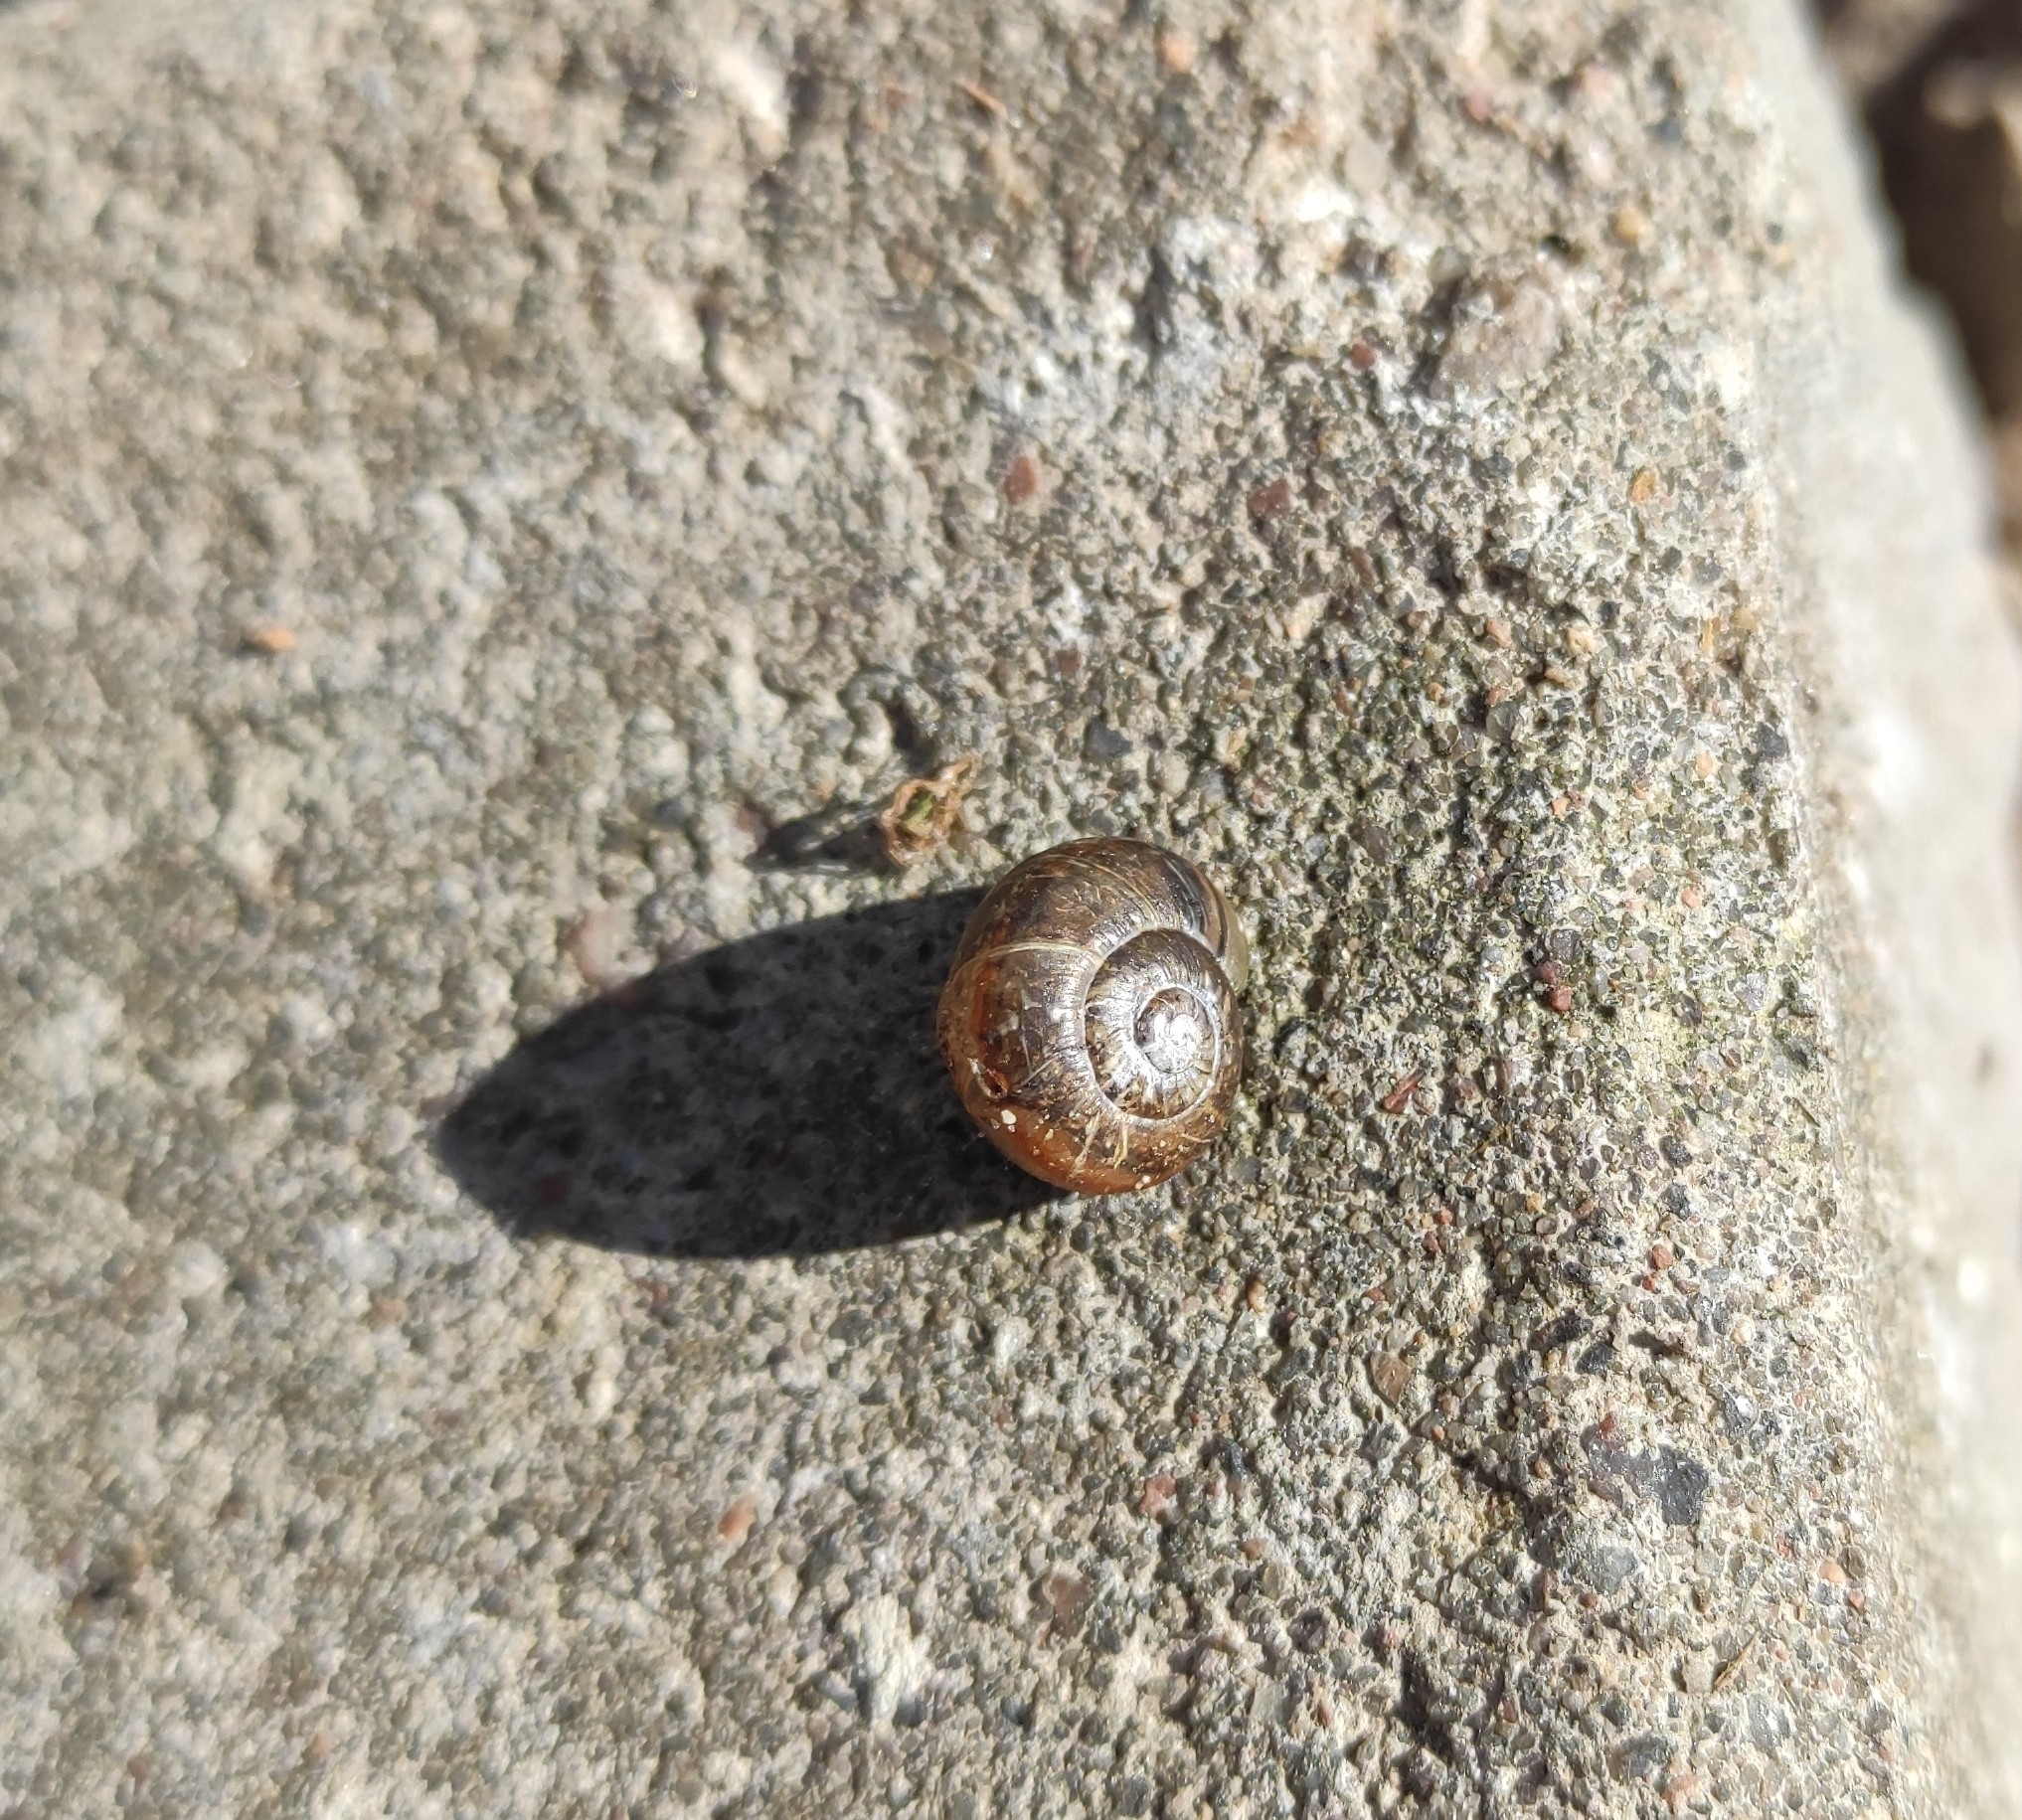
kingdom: Animalia
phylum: Mollusca
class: Gastropoda
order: Stylommatophora
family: Helicidae
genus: Arianta
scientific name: Arianta arbustorum
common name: Copse snail
